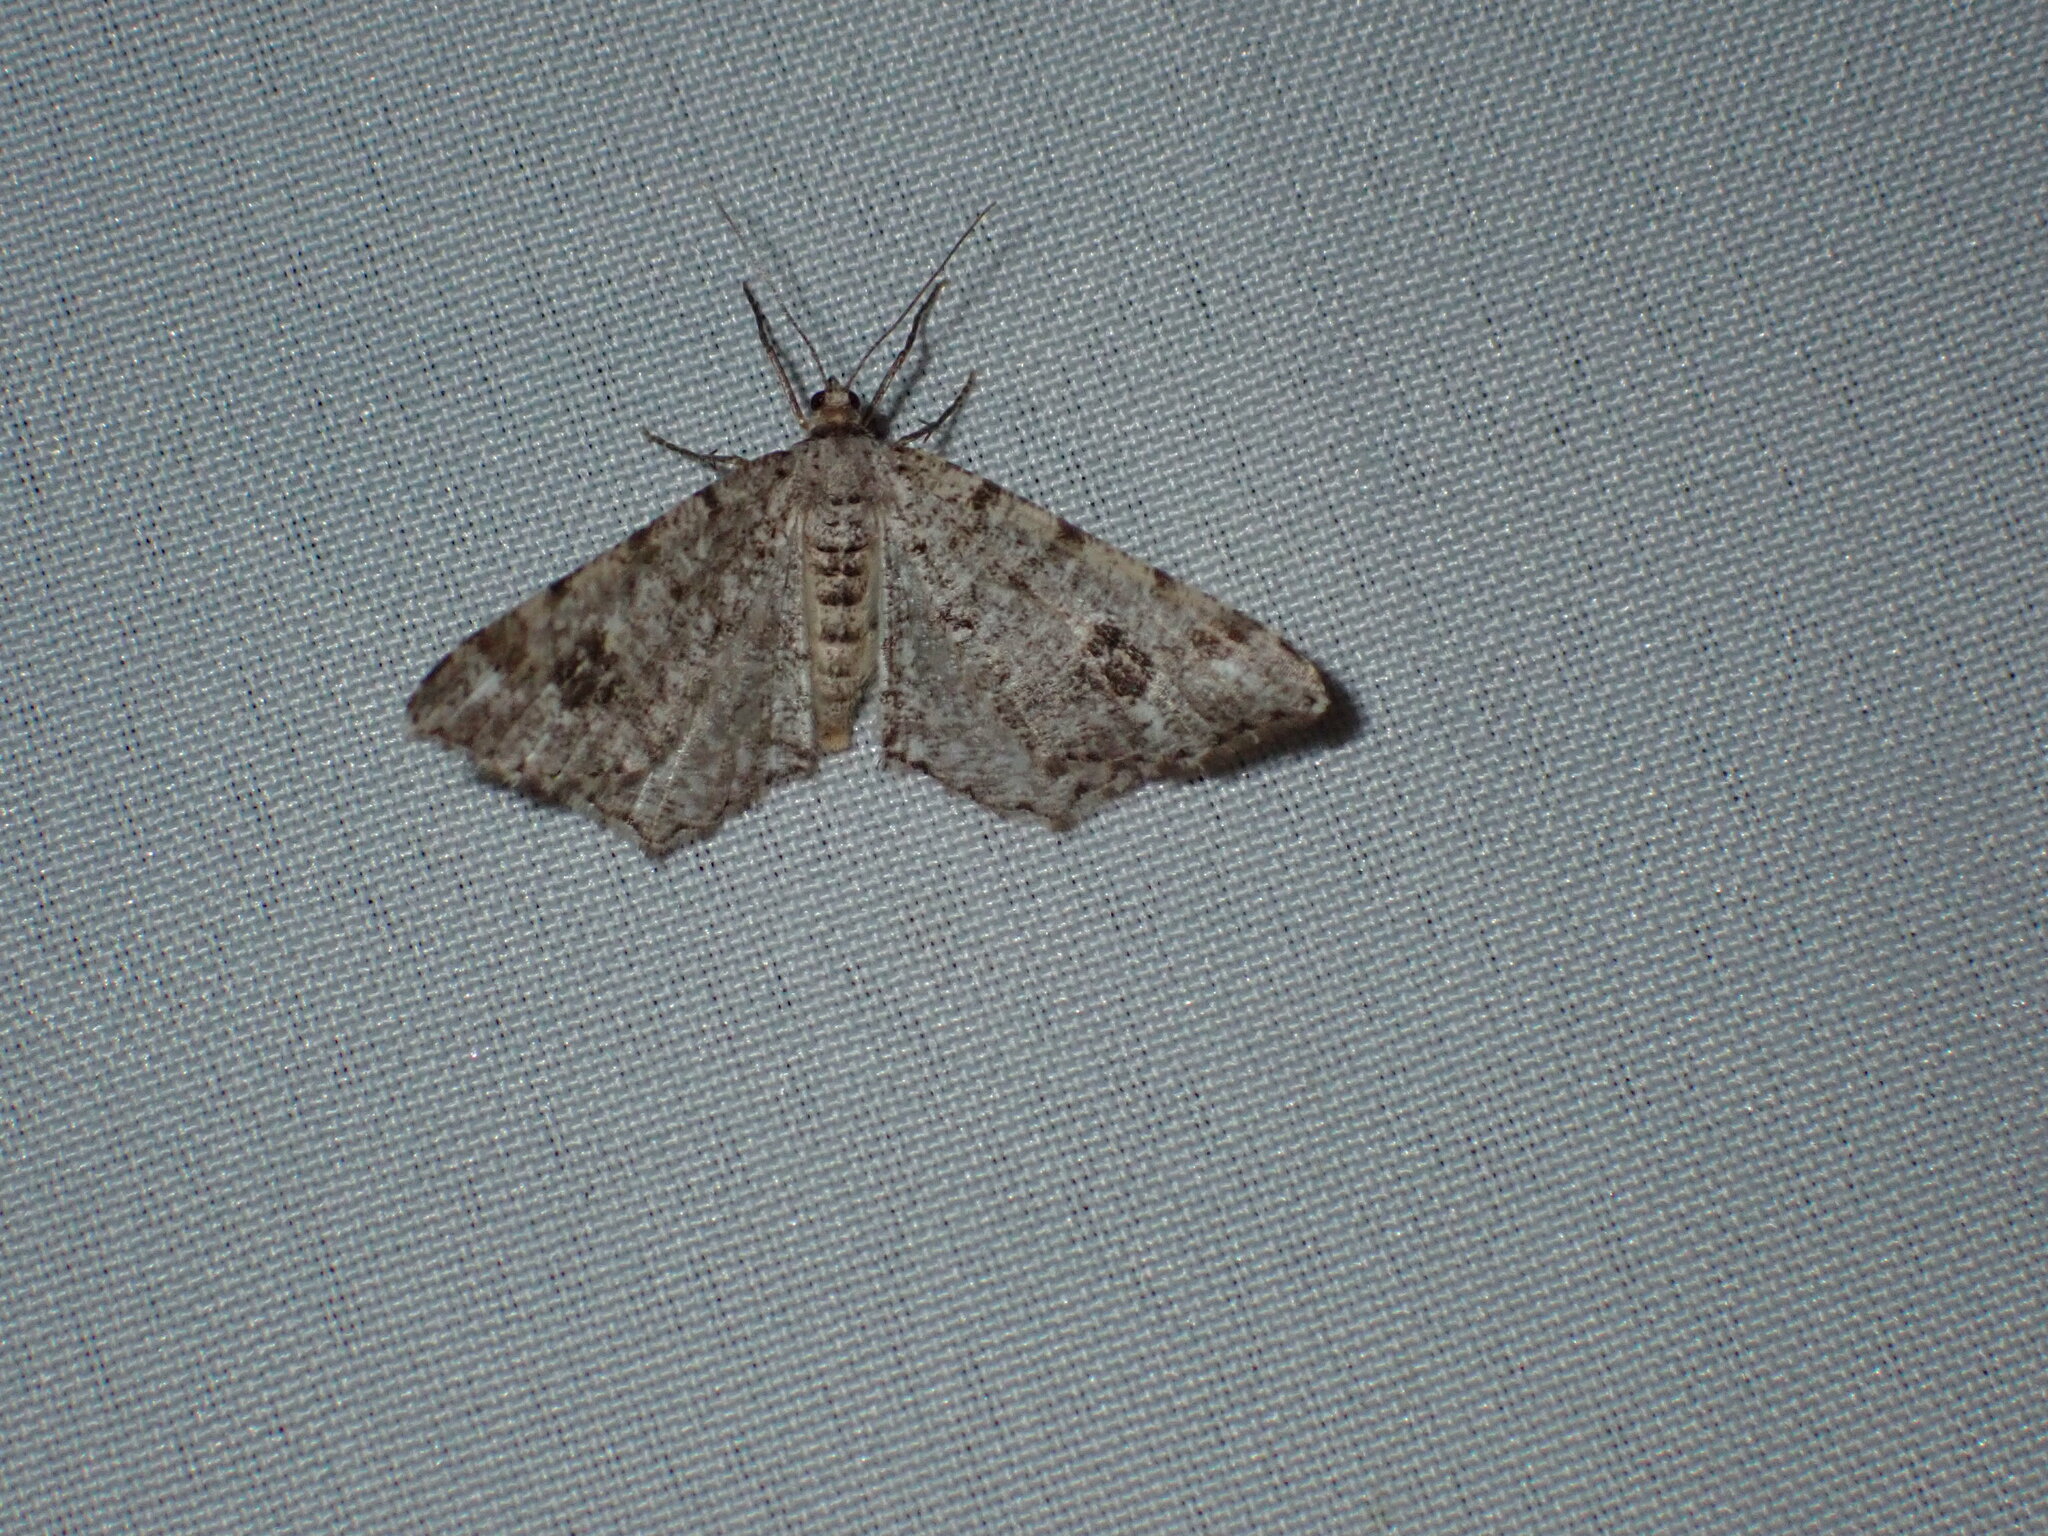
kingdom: Animalia
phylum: Arthropoda
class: Insecta
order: Lepidoptera
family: Geometridae
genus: Macaria
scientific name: Macaria signaria
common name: Dusky peacock
